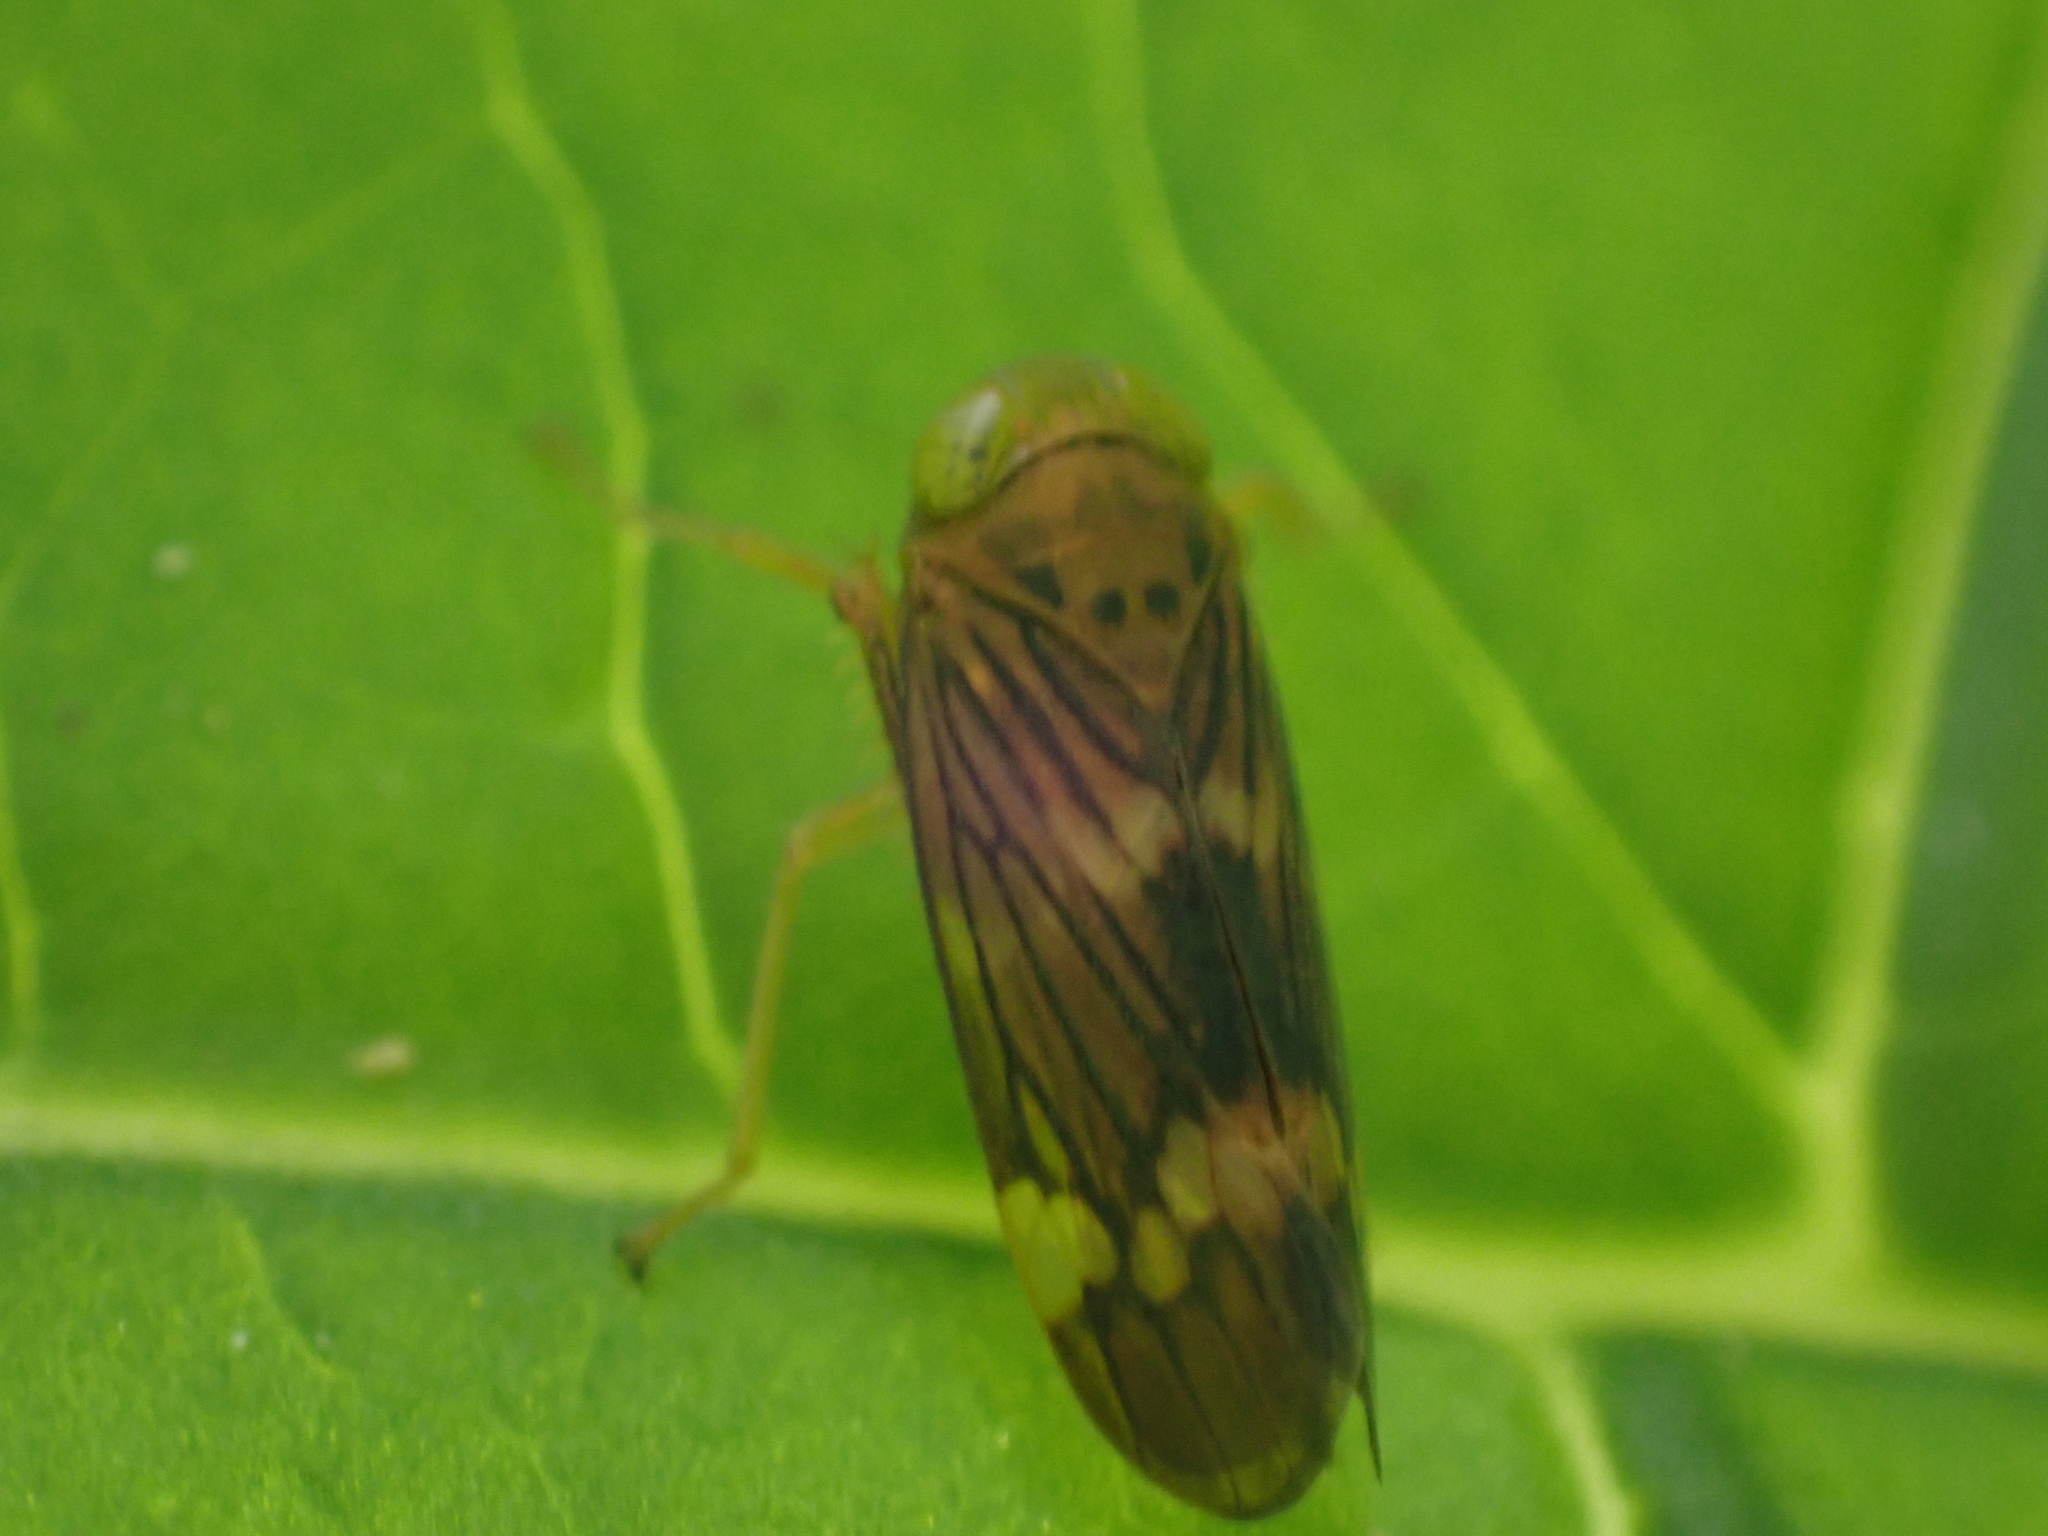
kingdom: Animalia
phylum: Arthropoda
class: Insecta
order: Hemiptera
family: Cicadellidae
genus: Jikradia
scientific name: Jikradia olitoria
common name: Coppery leafhopper
